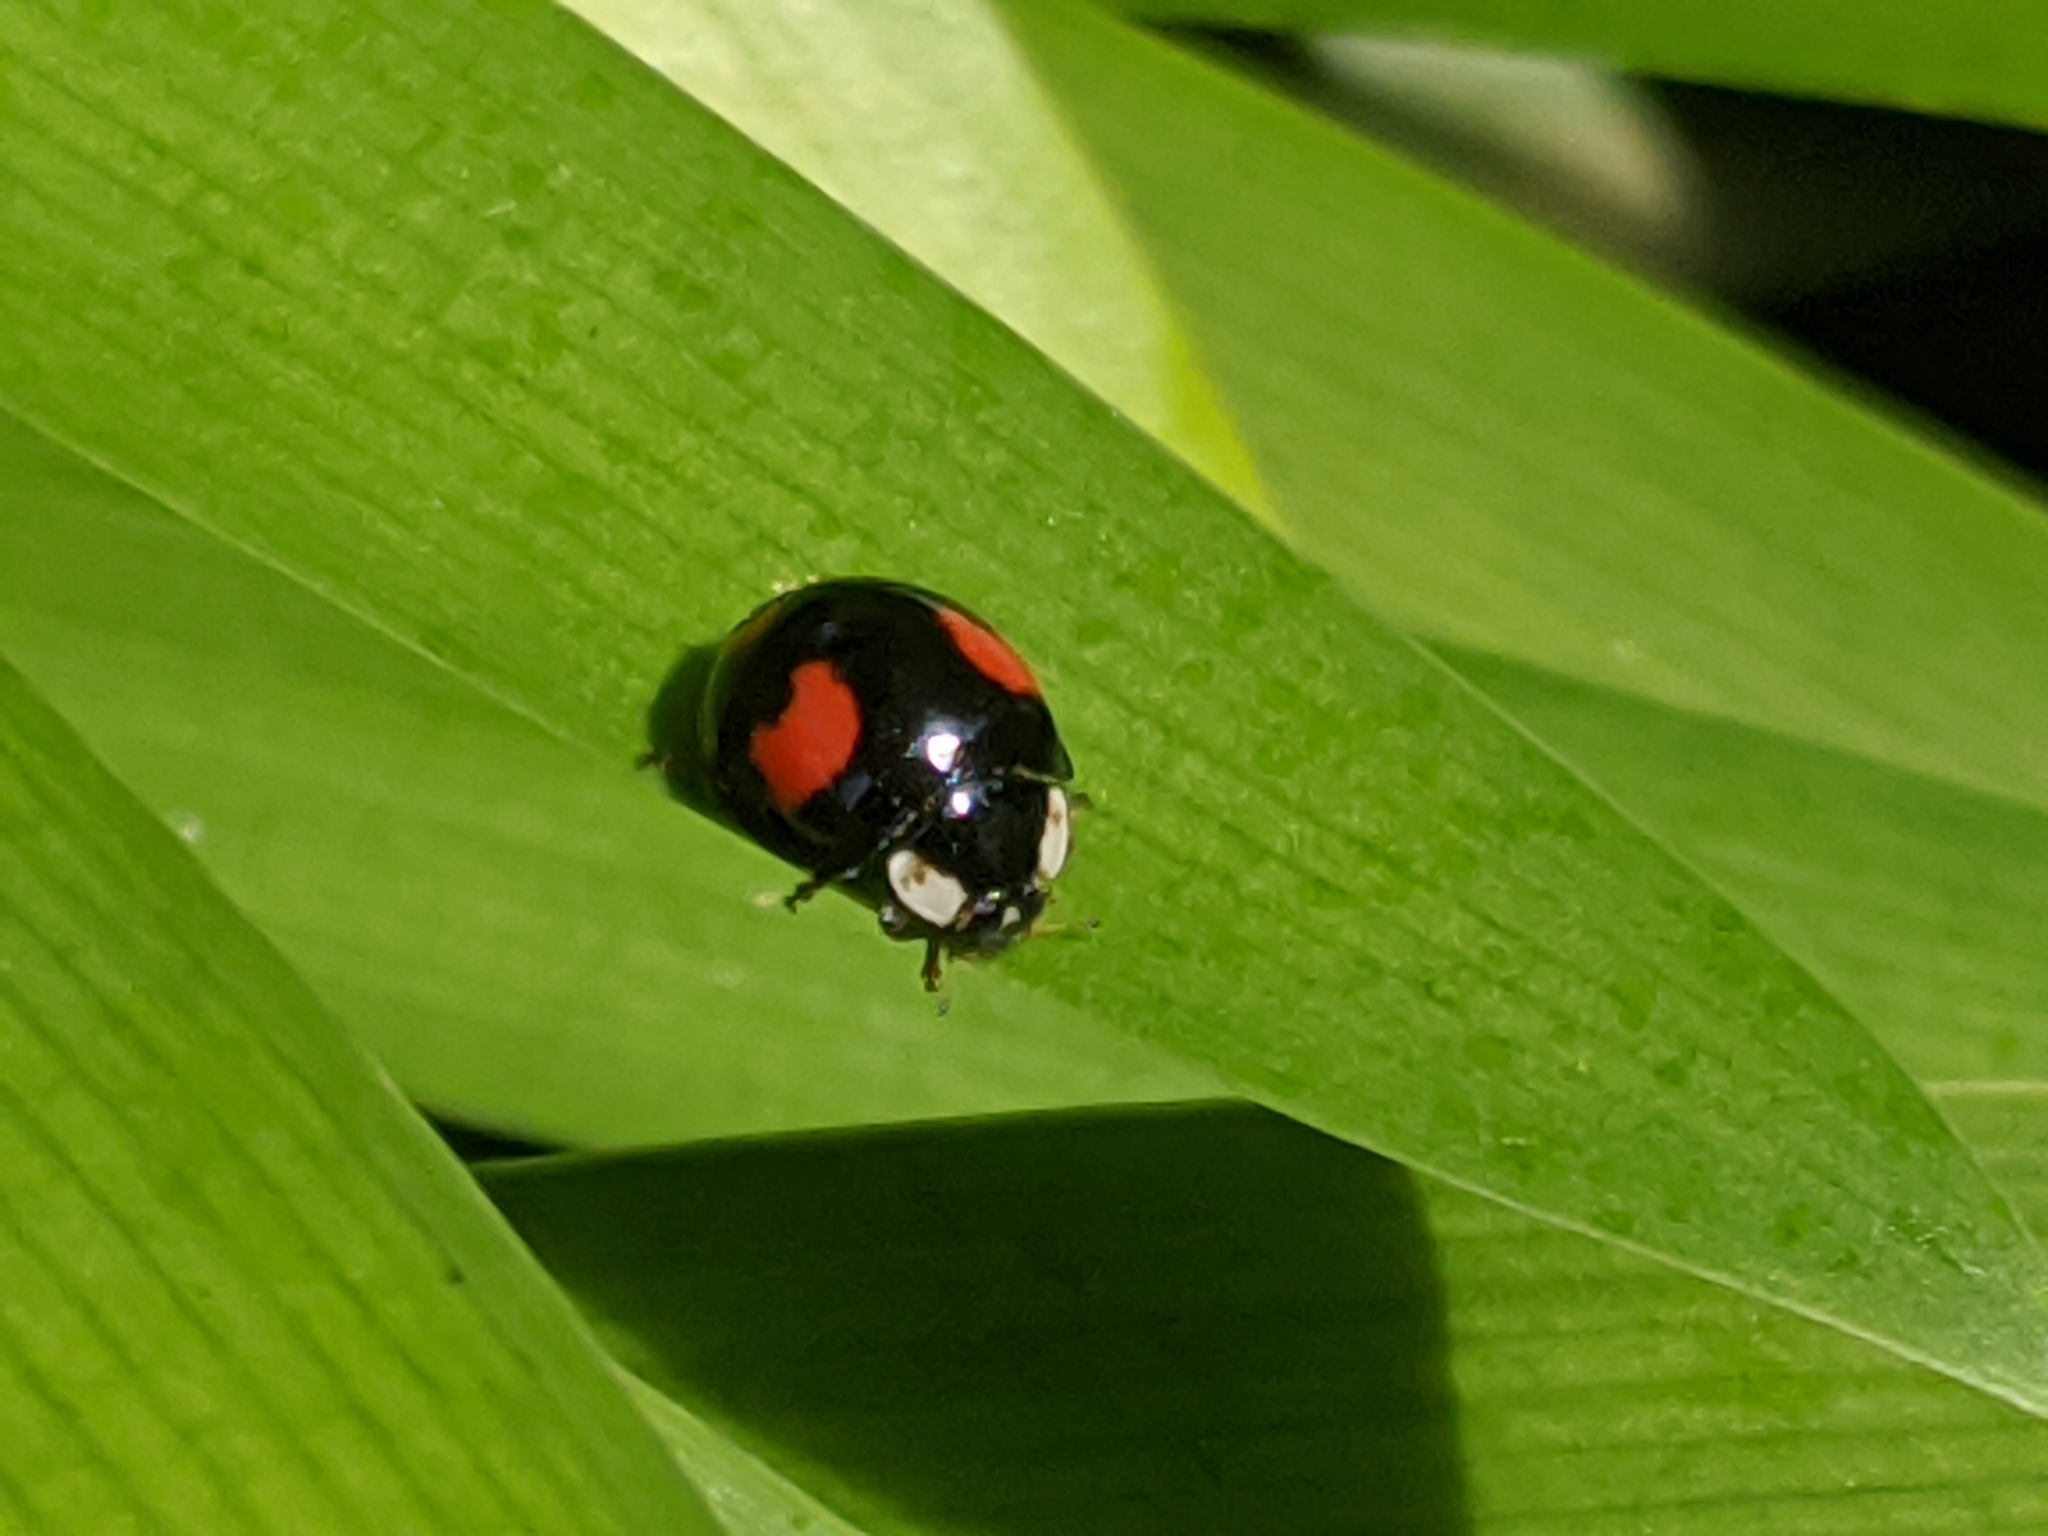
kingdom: Animalia
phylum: Arthropoda
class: Insecta
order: Coleoptera
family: Coccinellidae
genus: Harmonia
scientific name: Harmonia axyridis
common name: Harlequin ladybird
